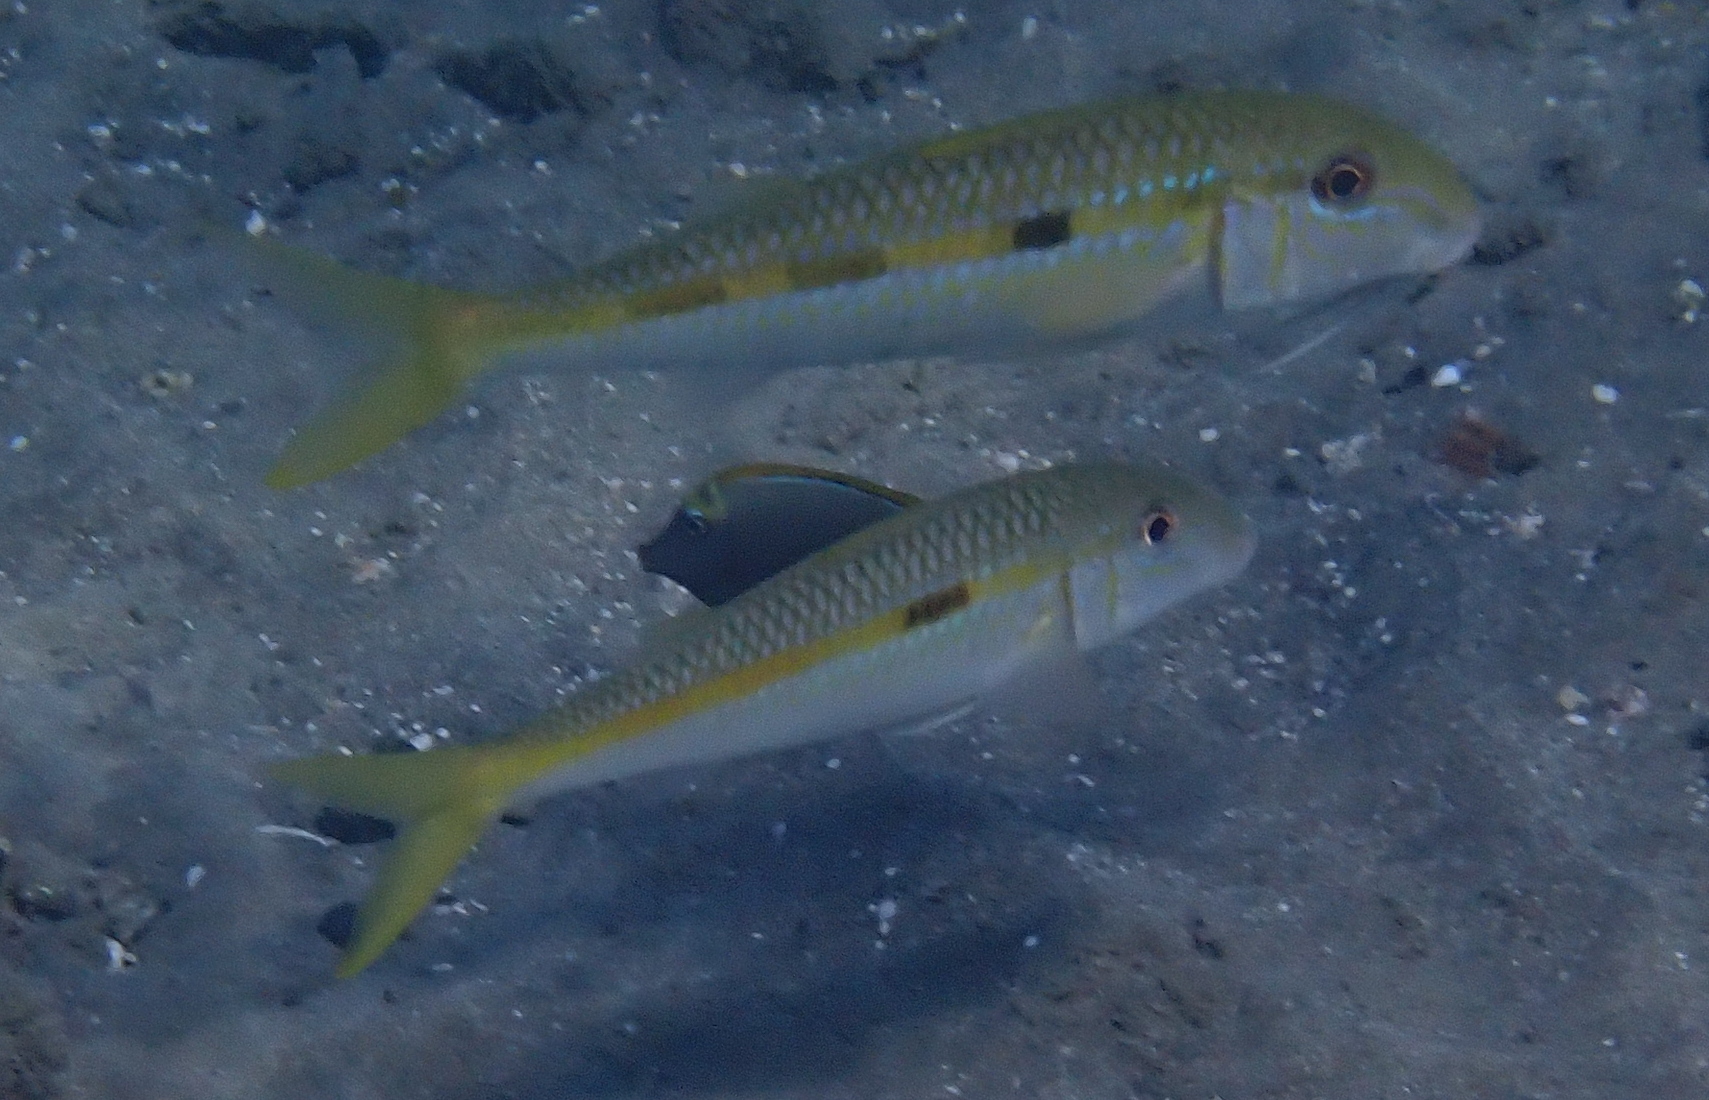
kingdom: Animalia
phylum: Chordata
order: Perciformes
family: Mullidae
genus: Mulloidichthys
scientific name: Mulloidichthys flavolineatus
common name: Yellowstripe goatfish
